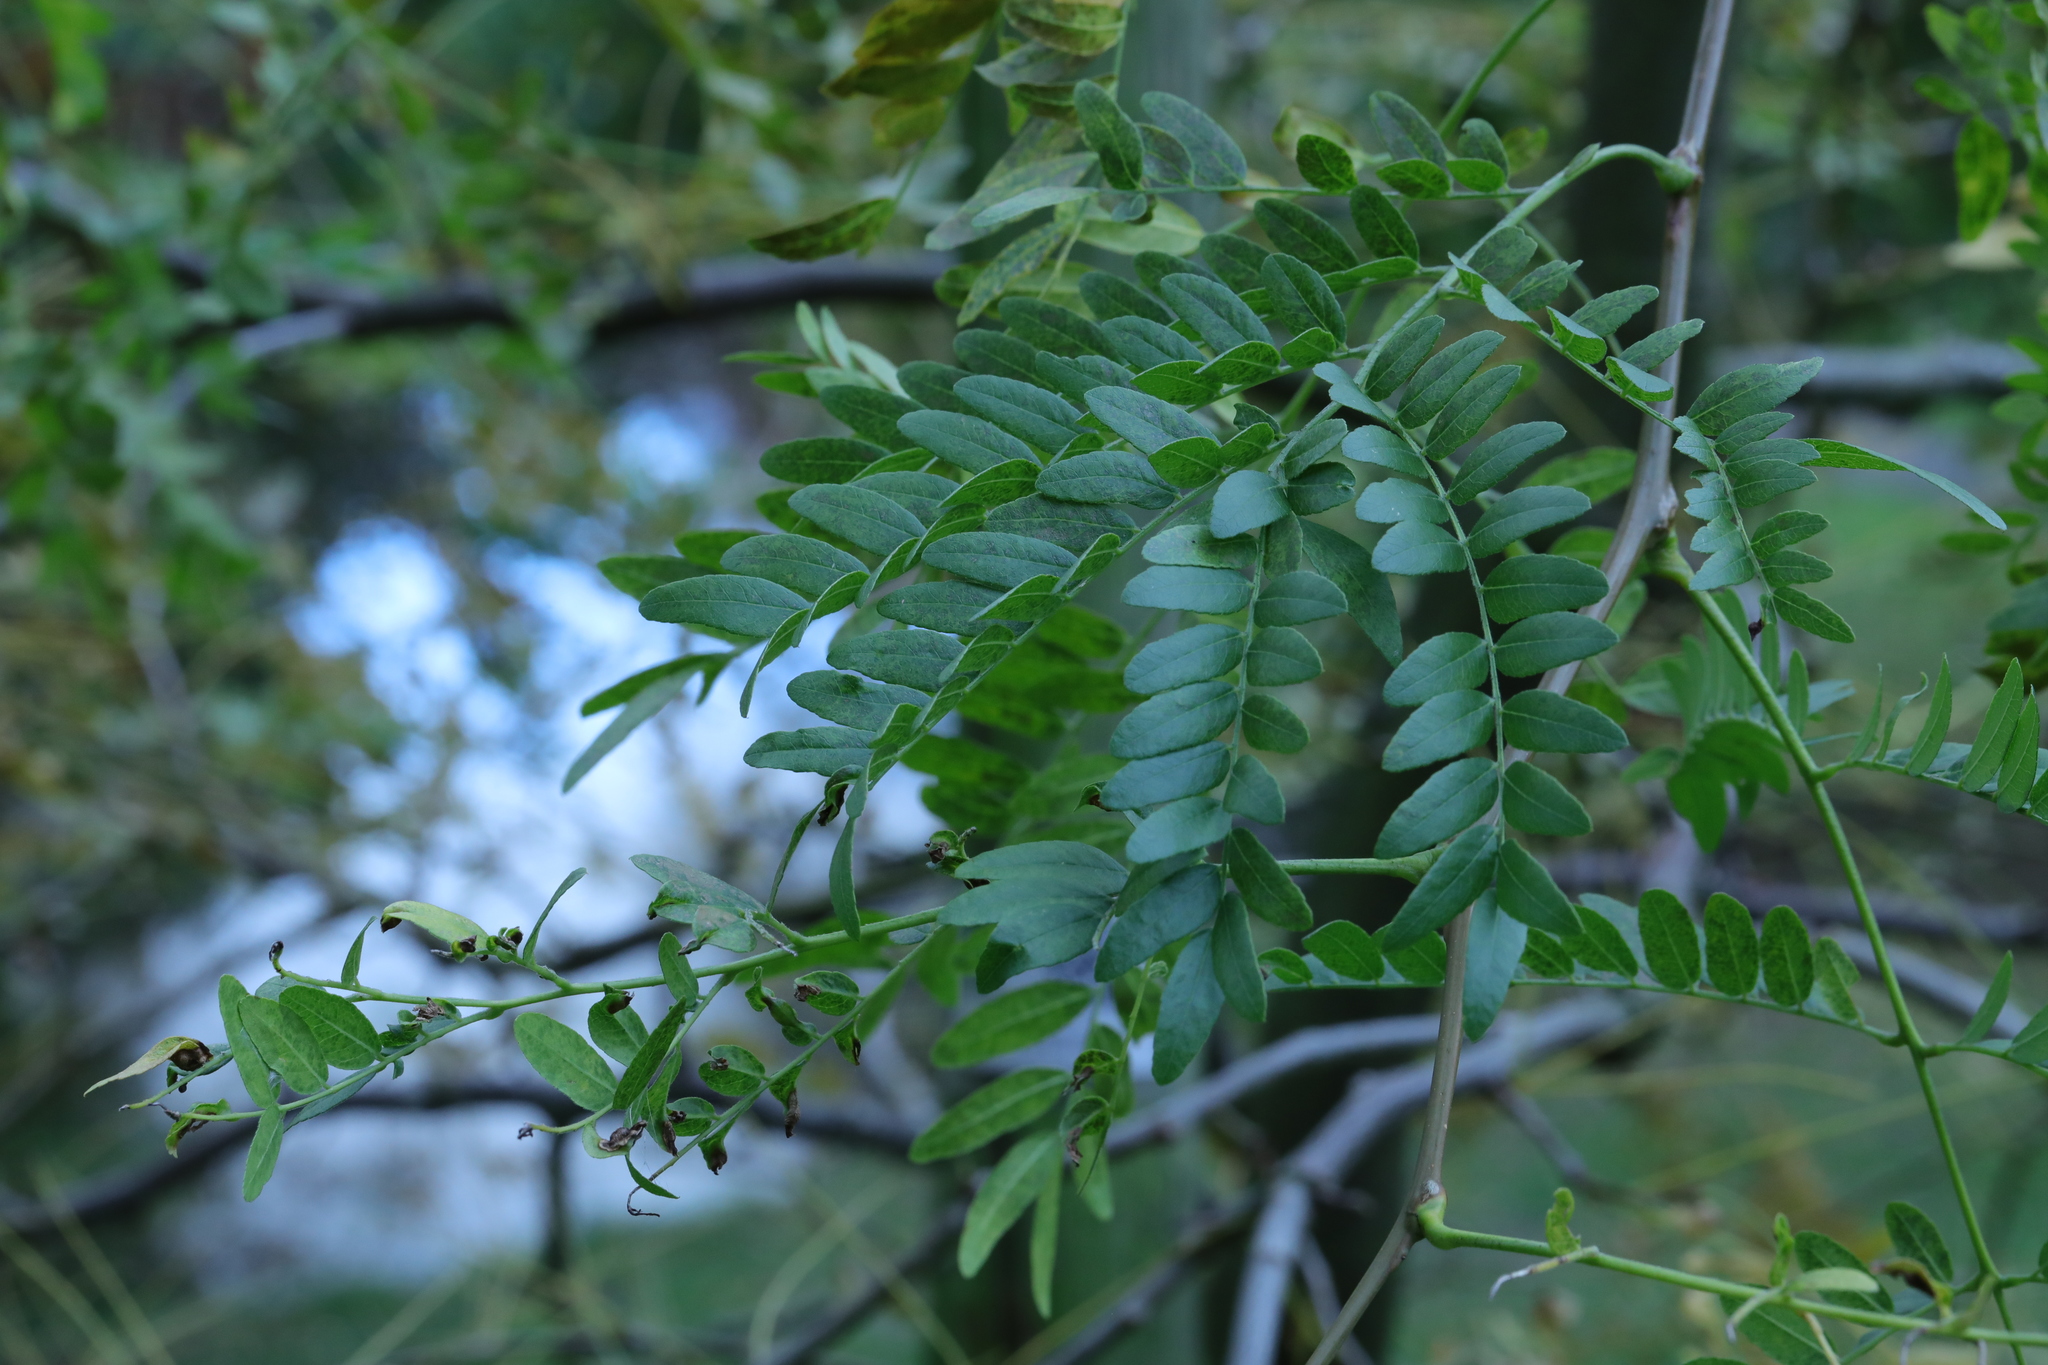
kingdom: Plantae
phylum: Tracheophyta
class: Magnoliopsida
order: Fabales
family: Fabaceae
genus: Gleditsia
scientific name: Gleditsia triacanthos
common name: Common honeylocust
